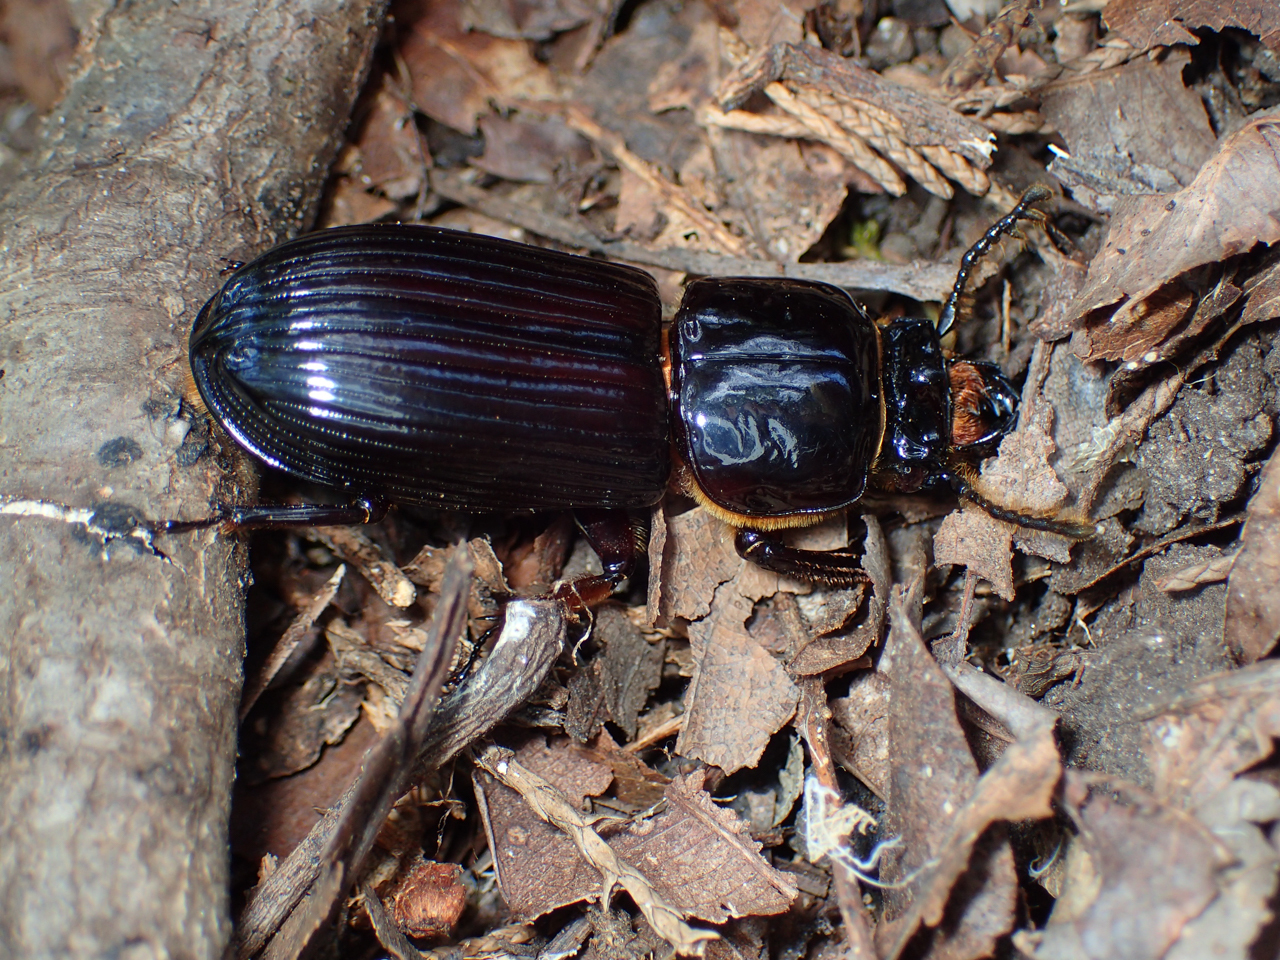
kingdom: Animalia
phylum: Arthropoda
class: Insecta
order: Coleoptera
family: Passalidae
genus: Odontotaenius
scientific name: Odontotaenius disjunctus
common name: Patent leather beetle
